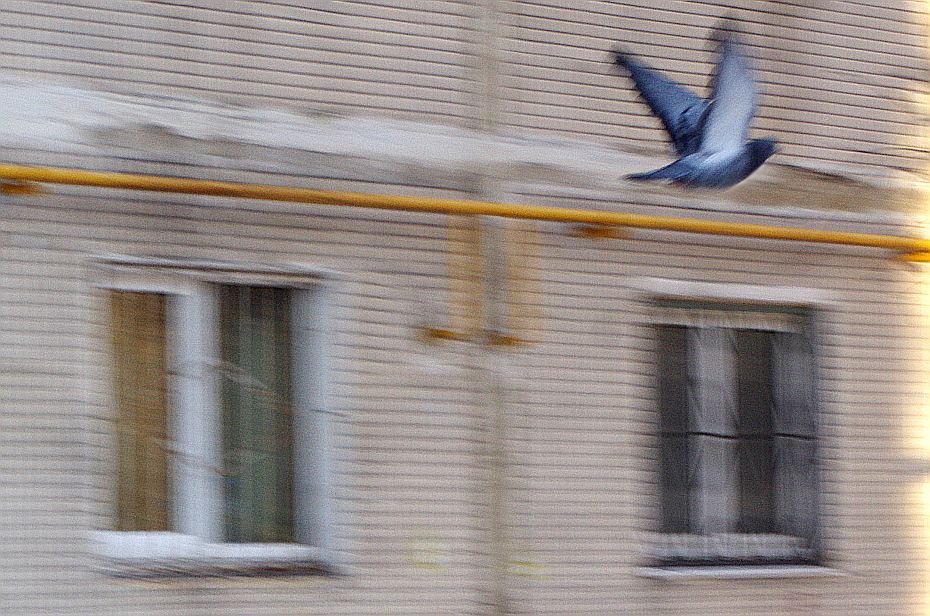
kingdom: Animalia
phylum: Chordata
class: Aves
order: Columbiformes
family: Columbidae
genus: Columba
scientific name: Columba livia
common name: Rock pigeon
